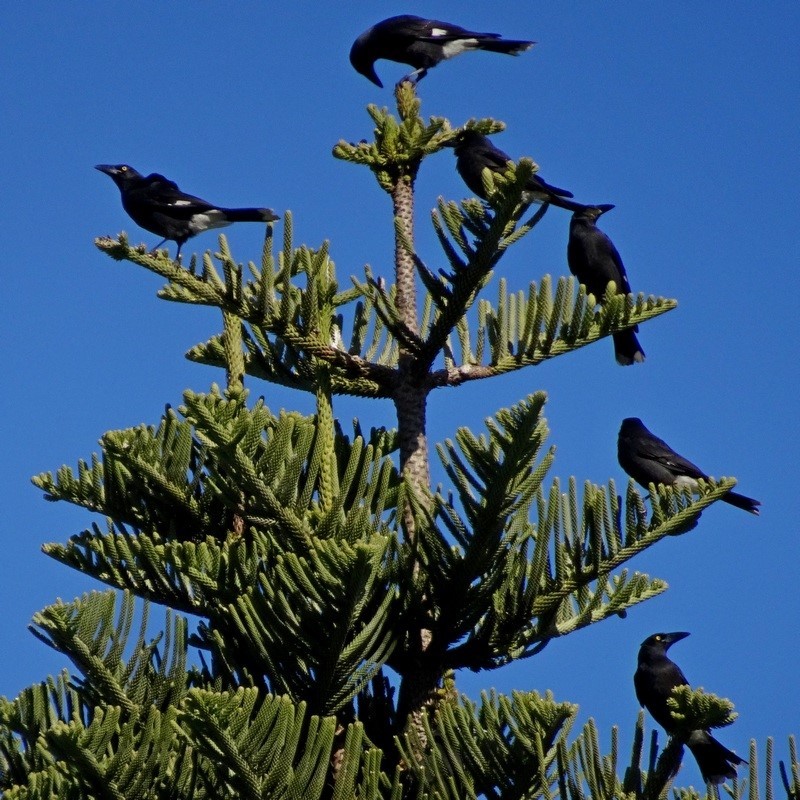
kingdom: Animalia
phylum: Chordata
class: Aves
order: Passeriformes
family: Cracticidae
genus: Strepera
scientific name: Strepera graculina
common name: Pied currawong
